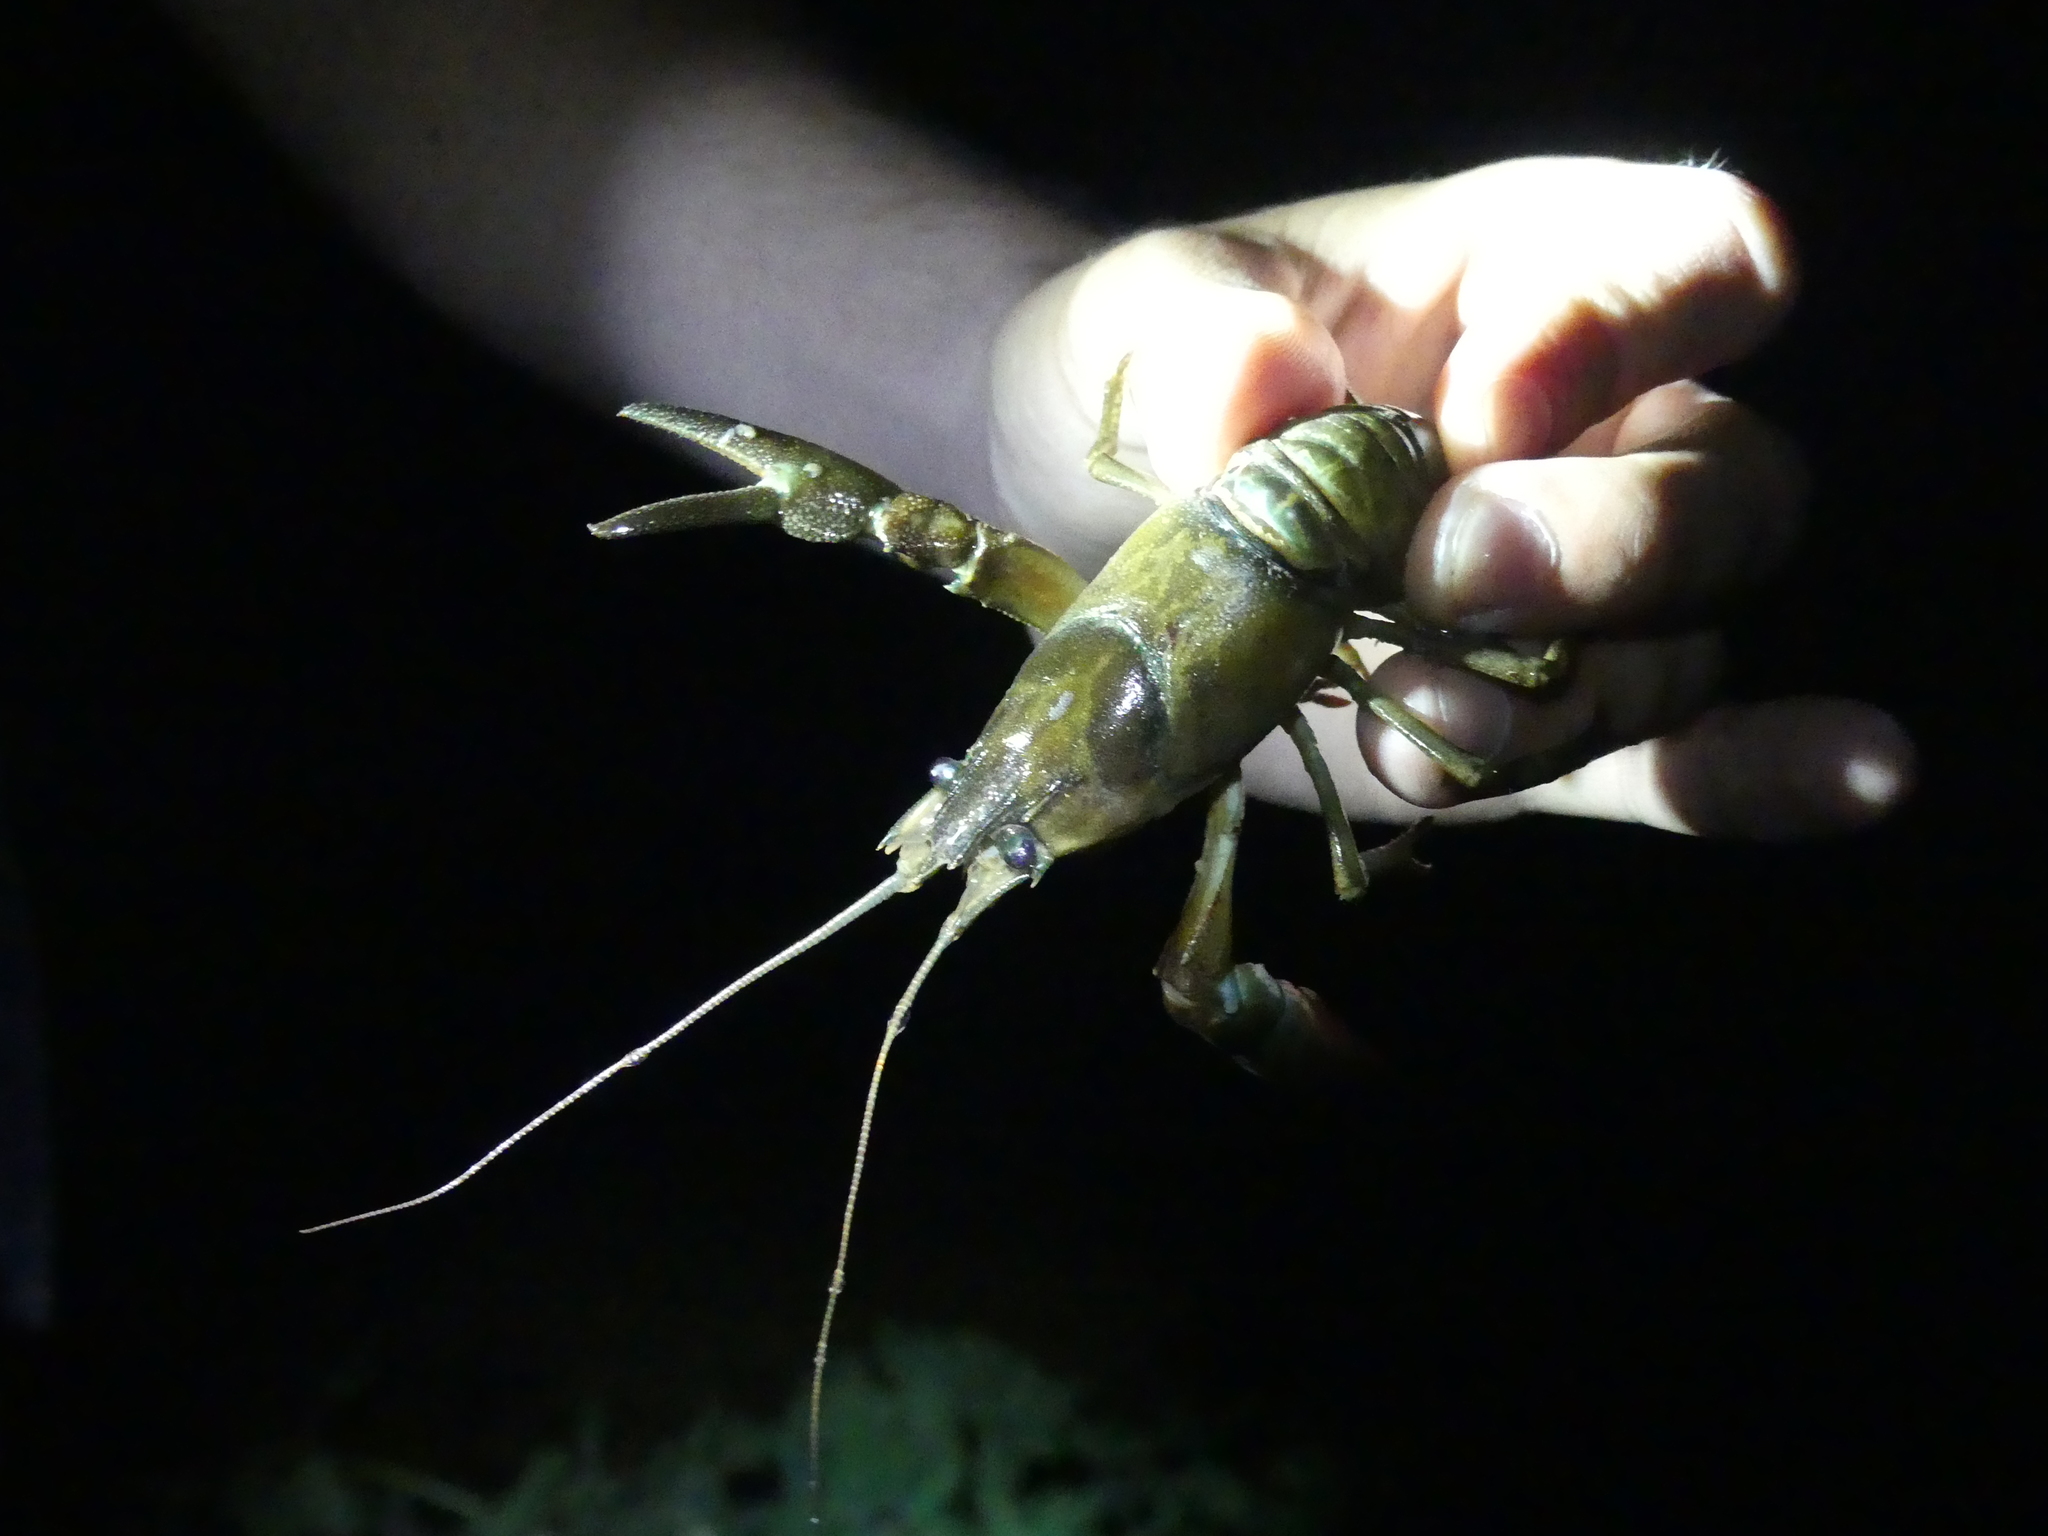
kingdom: Animalia
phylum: Arthropoda
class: Malacostraca
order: Decapoda
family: Astacidae
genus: Pacifastacus
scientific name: Pacifastacus leniusculus
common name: Signal crayfish
